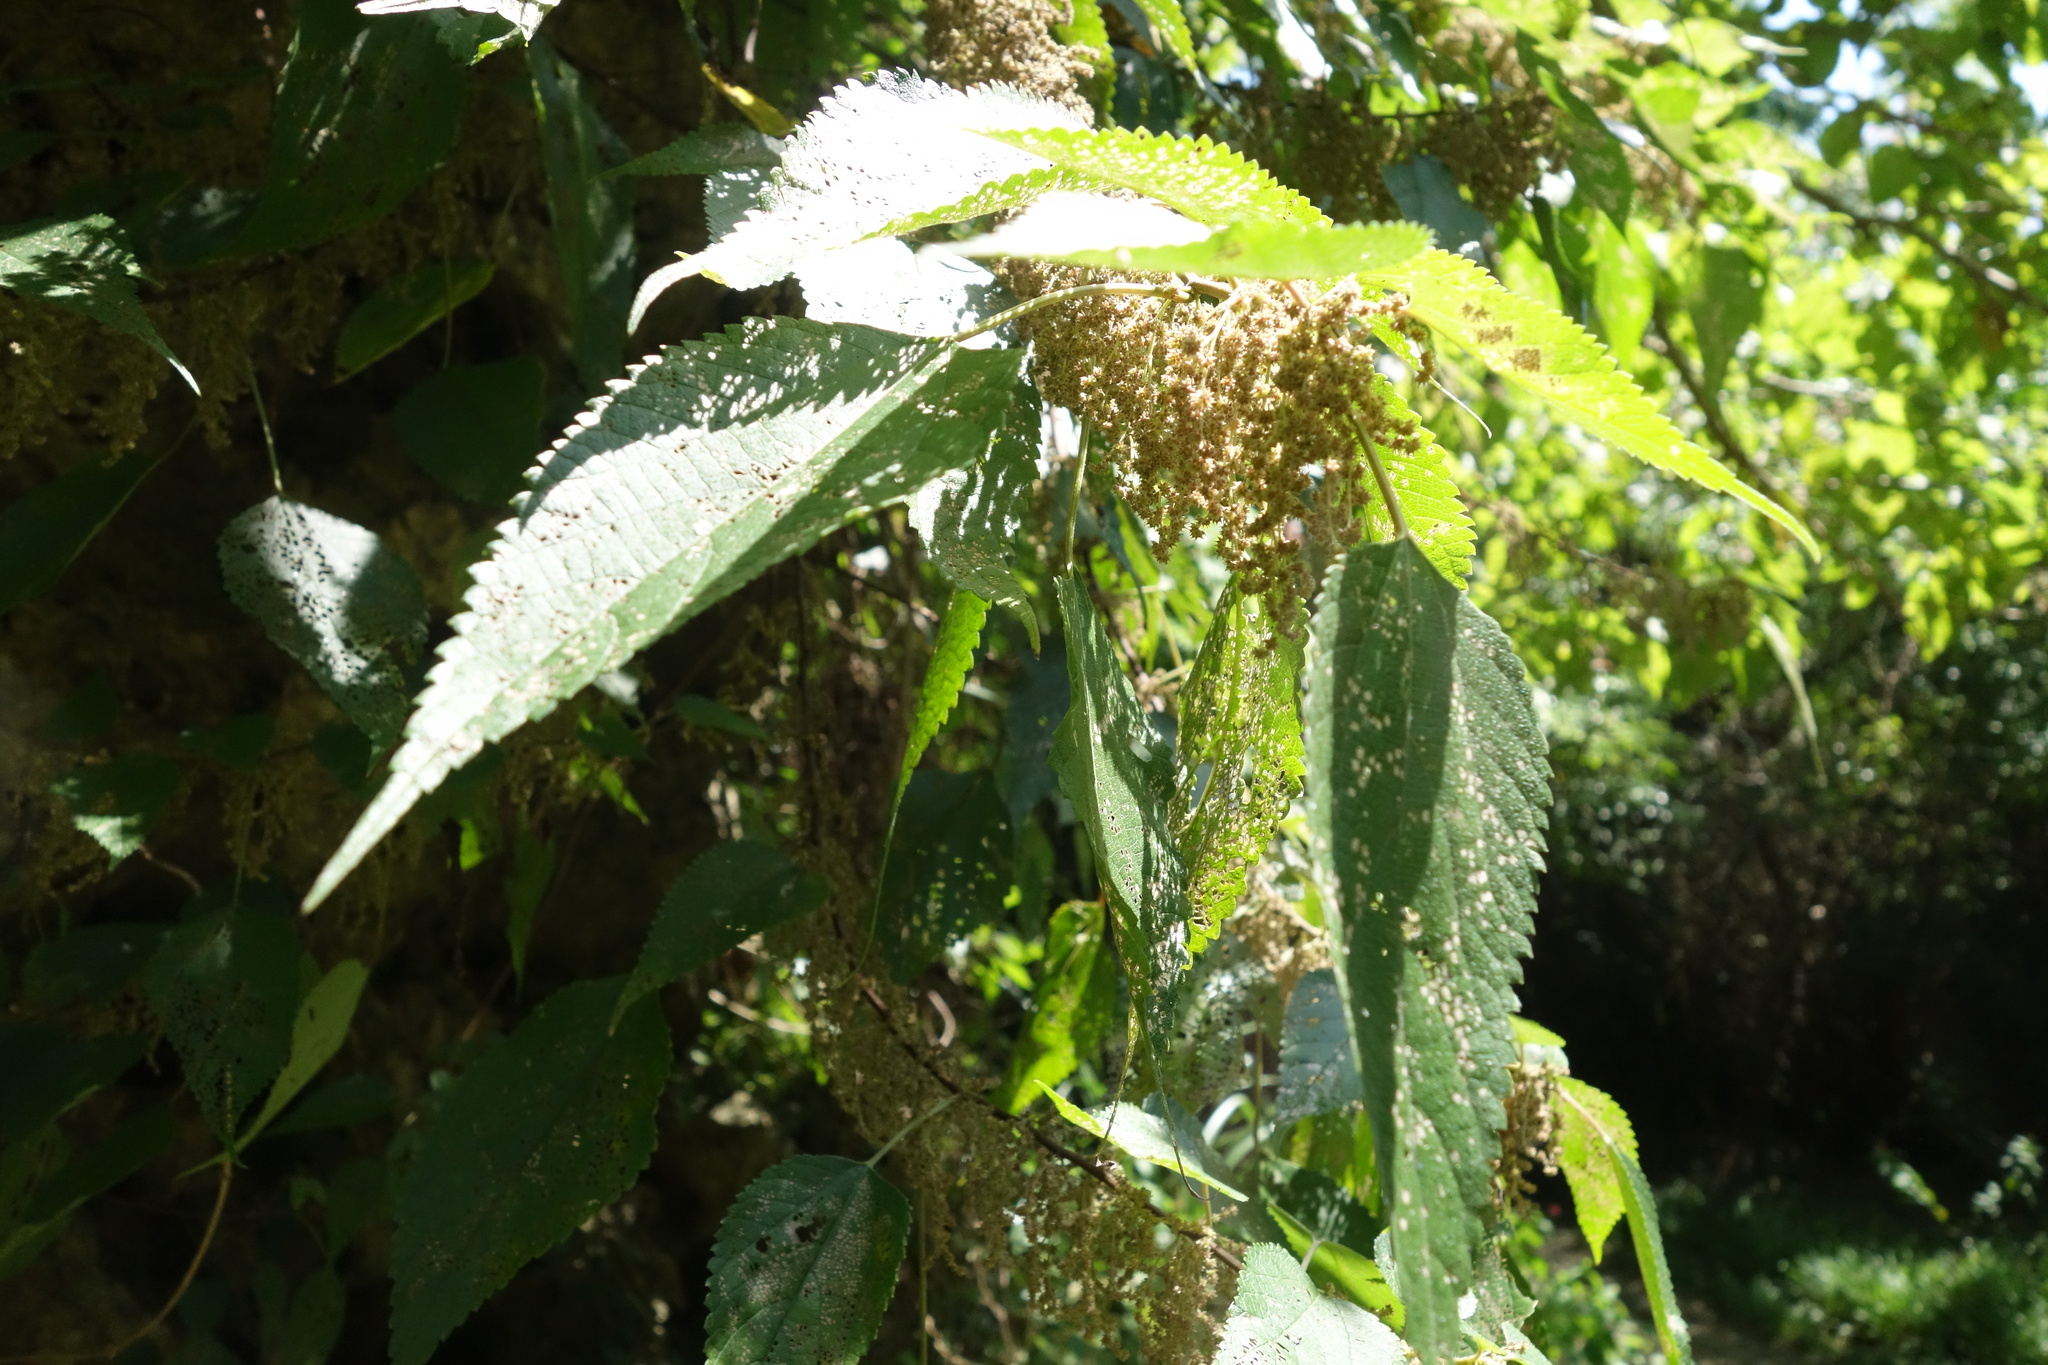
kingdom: Plantae
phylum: Tracheophyta
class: Magnoliopsida
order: Rosales
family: Urticaceae
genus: Boehmeria
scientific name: Boehmeria nivea
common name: Ramie chinese grass
